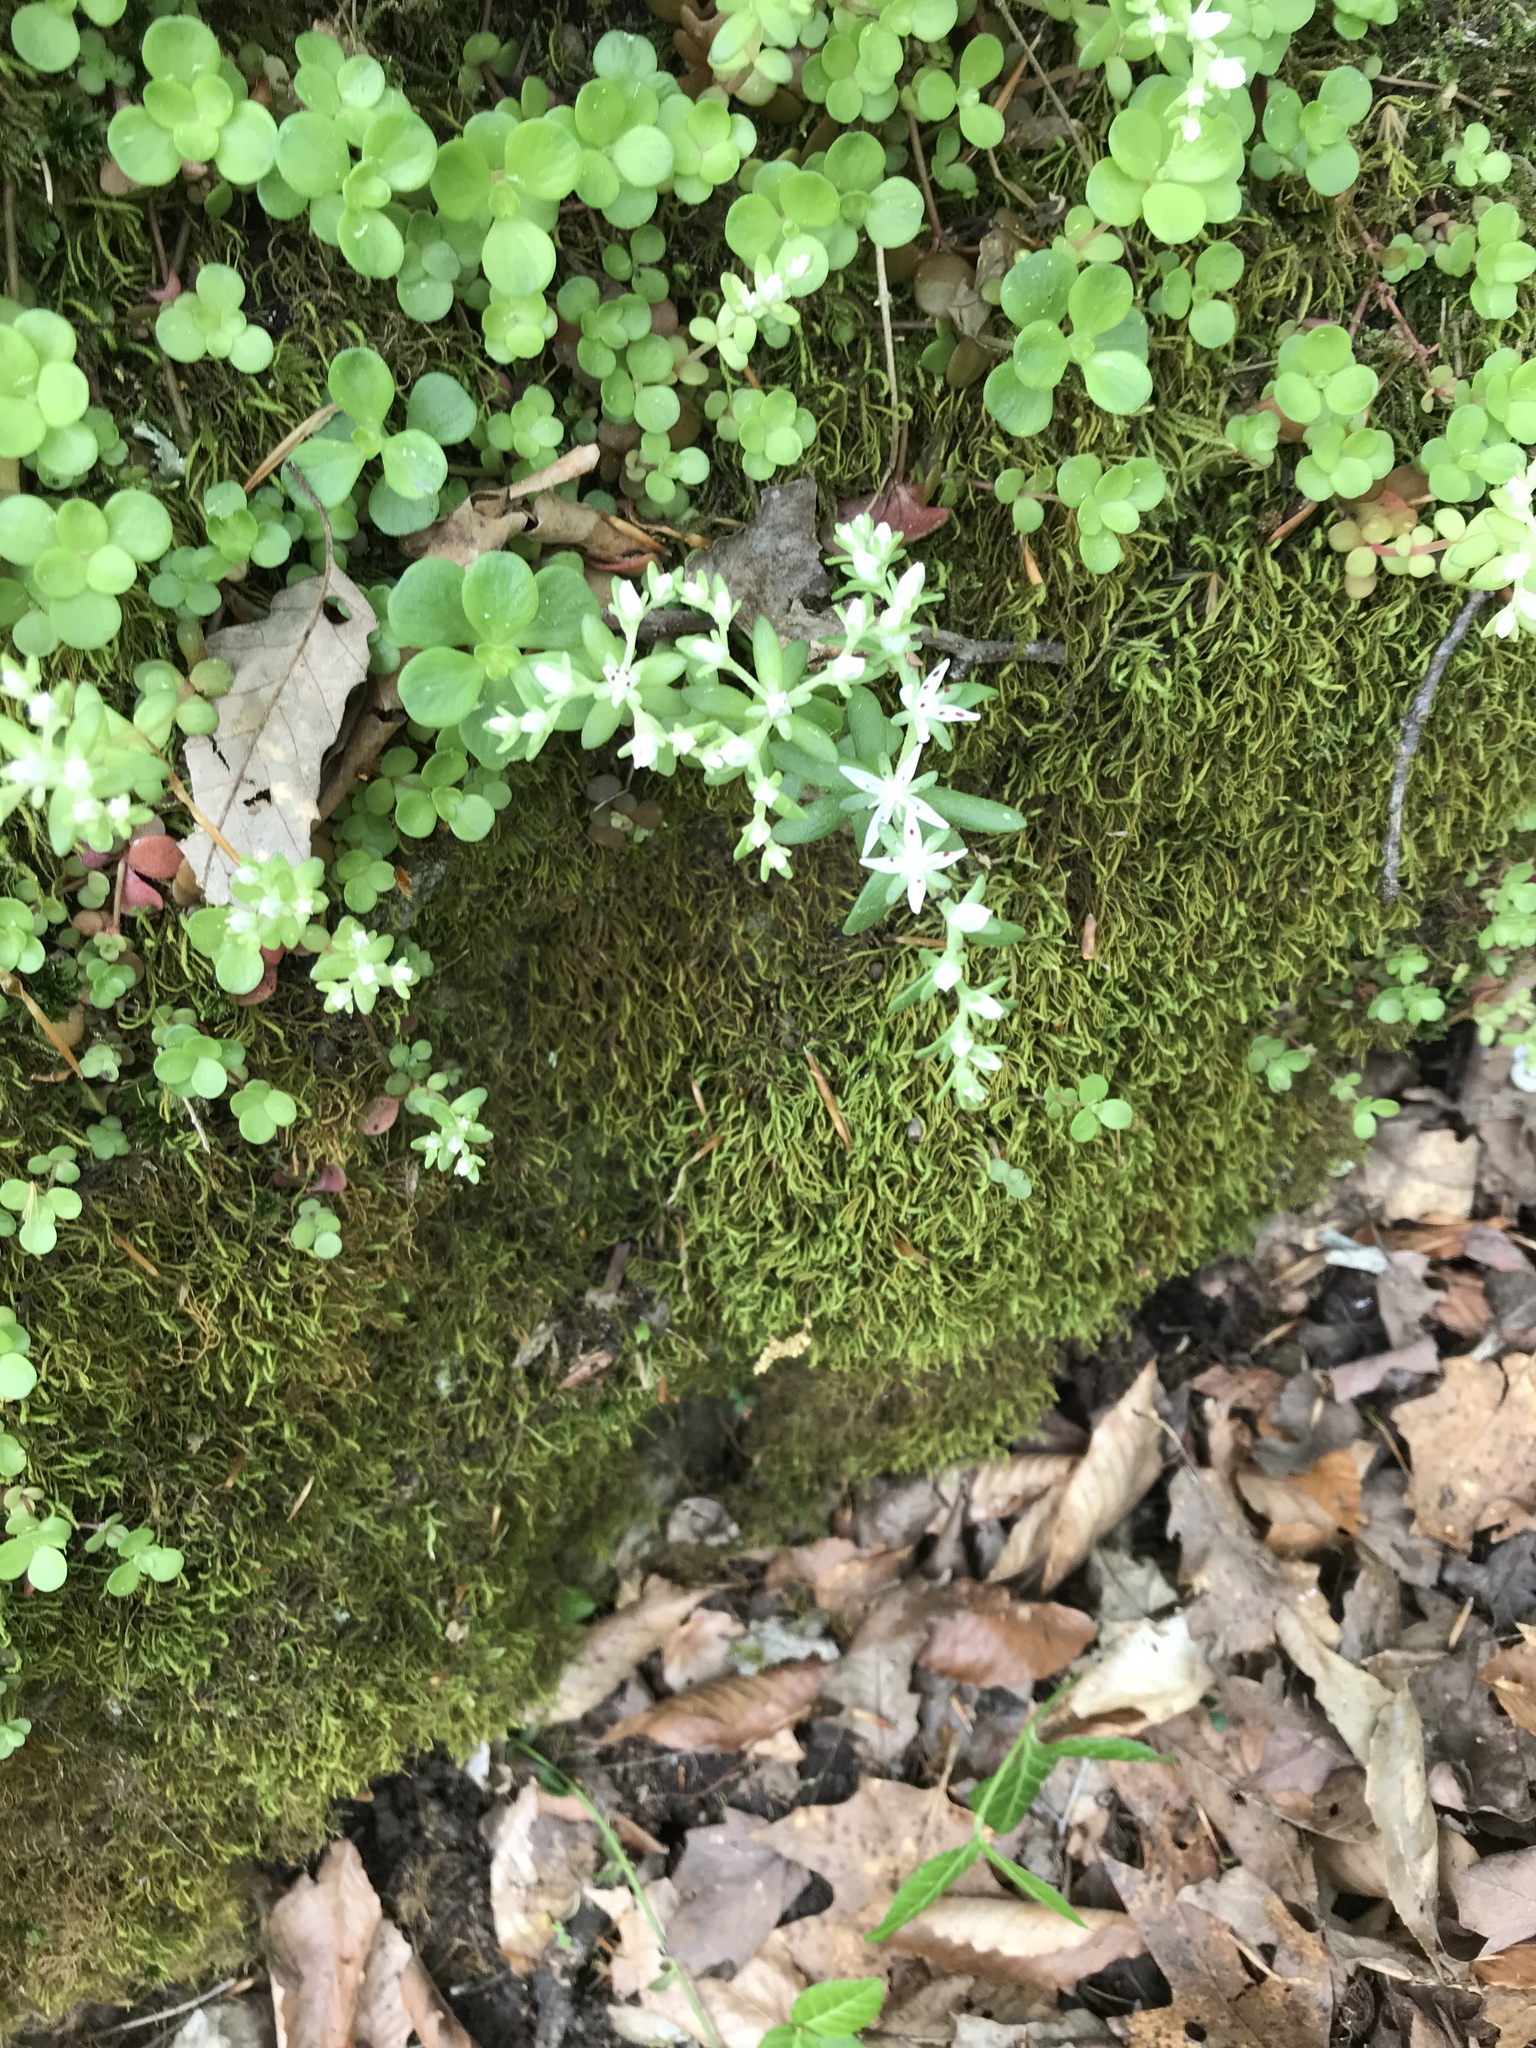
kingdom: Plantae
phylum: Tracheophyta
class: Magnoliopsida
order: Saxifragales
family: Crassulaceae
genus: Sedum
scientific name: Sedum ternatum
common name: Wild stonecrop
